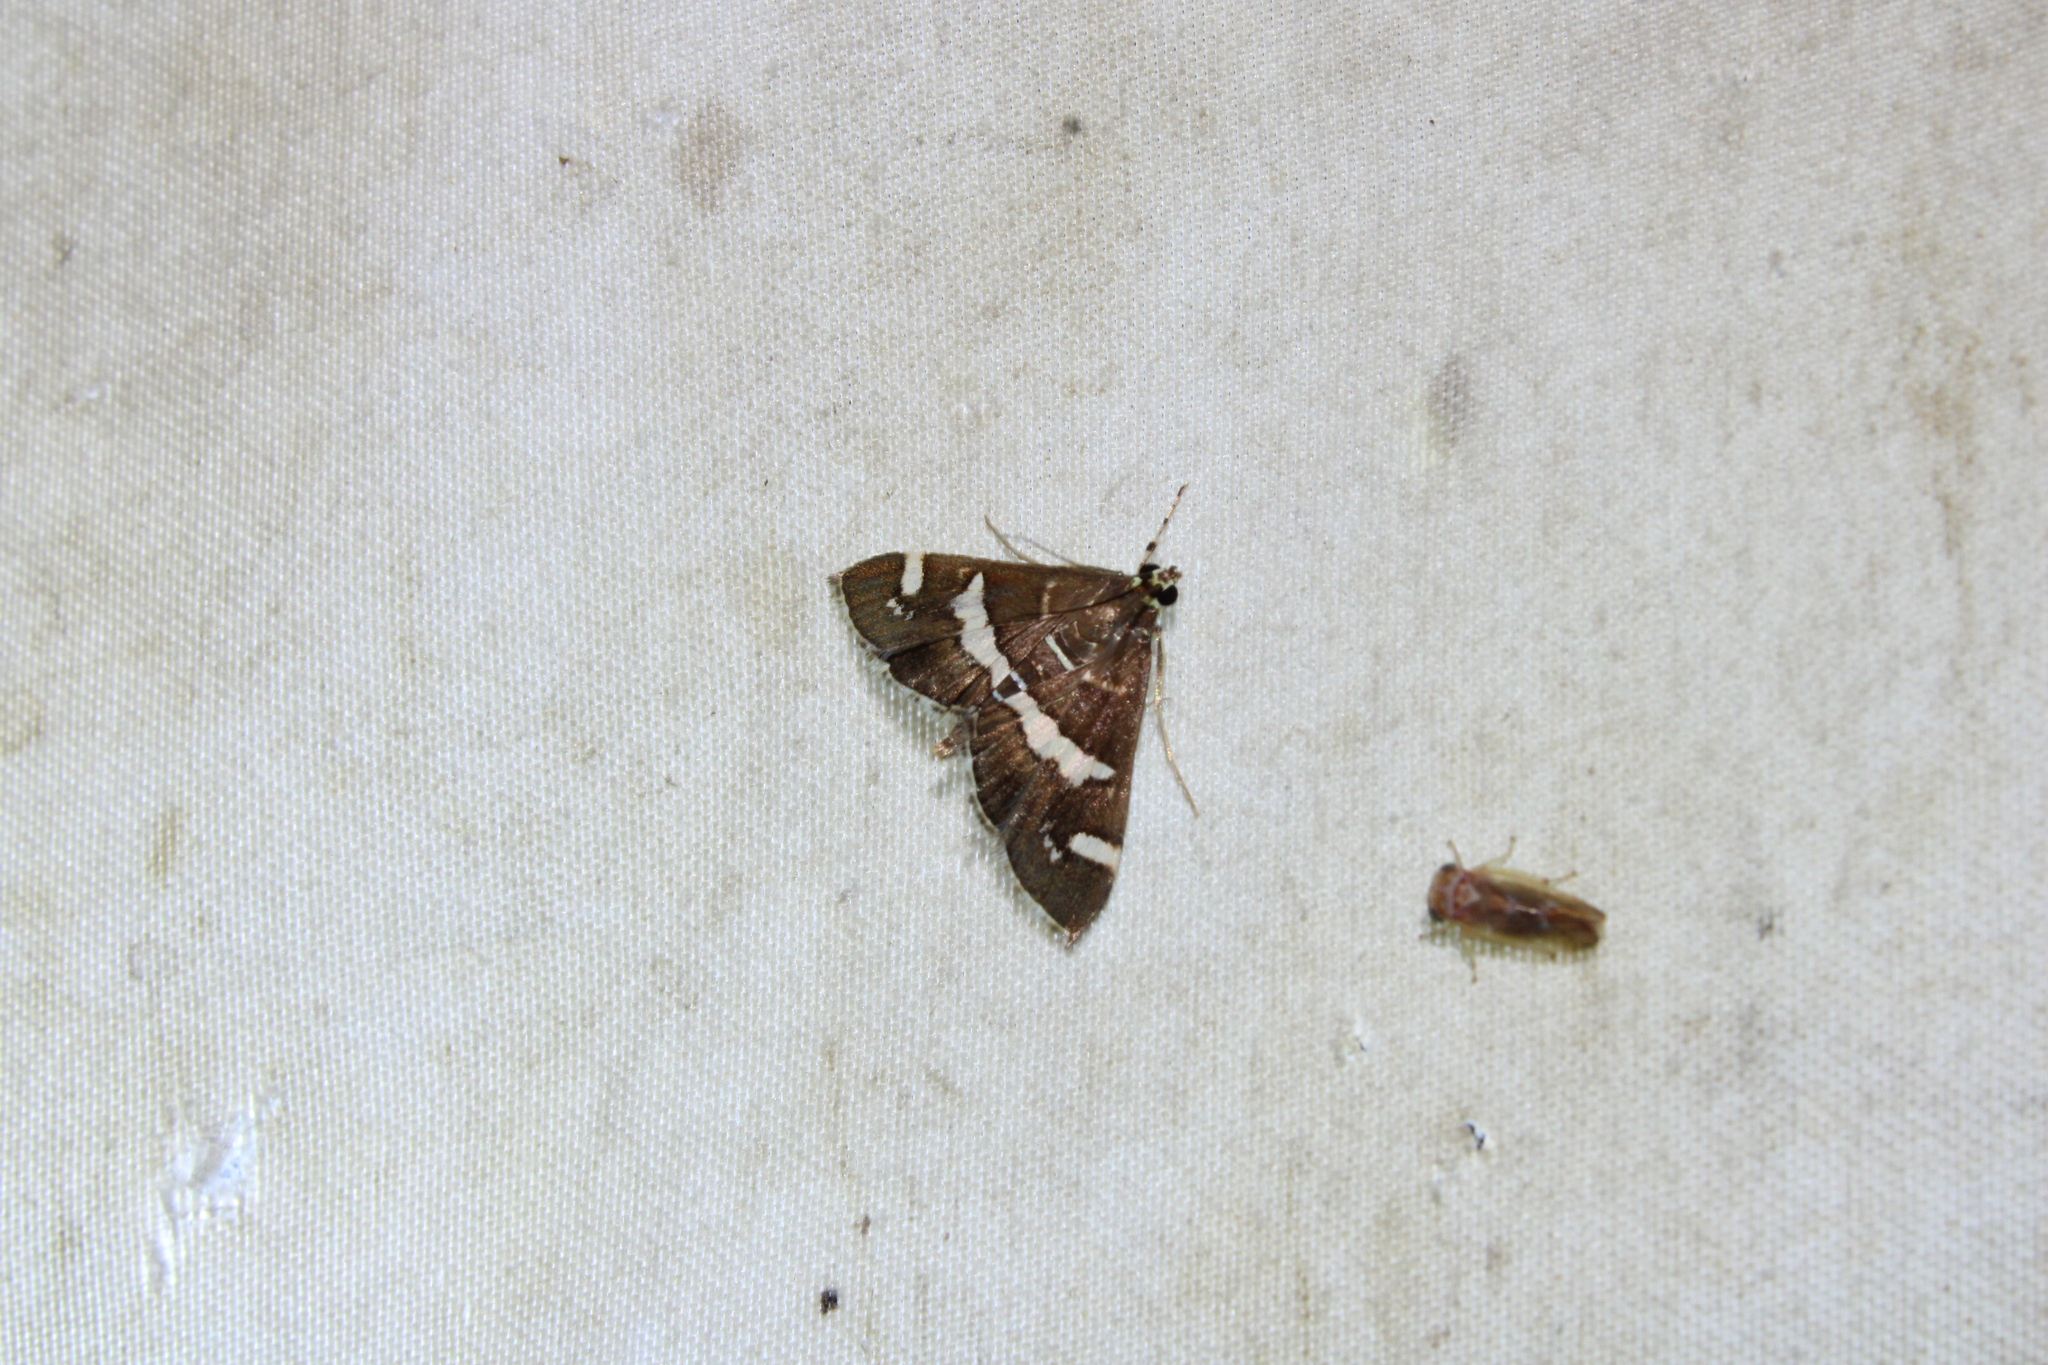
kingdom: Animalia
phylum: Arthropoda
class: Insecta
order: Lepidoptera
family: Crambidae
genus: Spoladea
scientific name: Spoladea recurvalis
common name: Beet webworm moth
